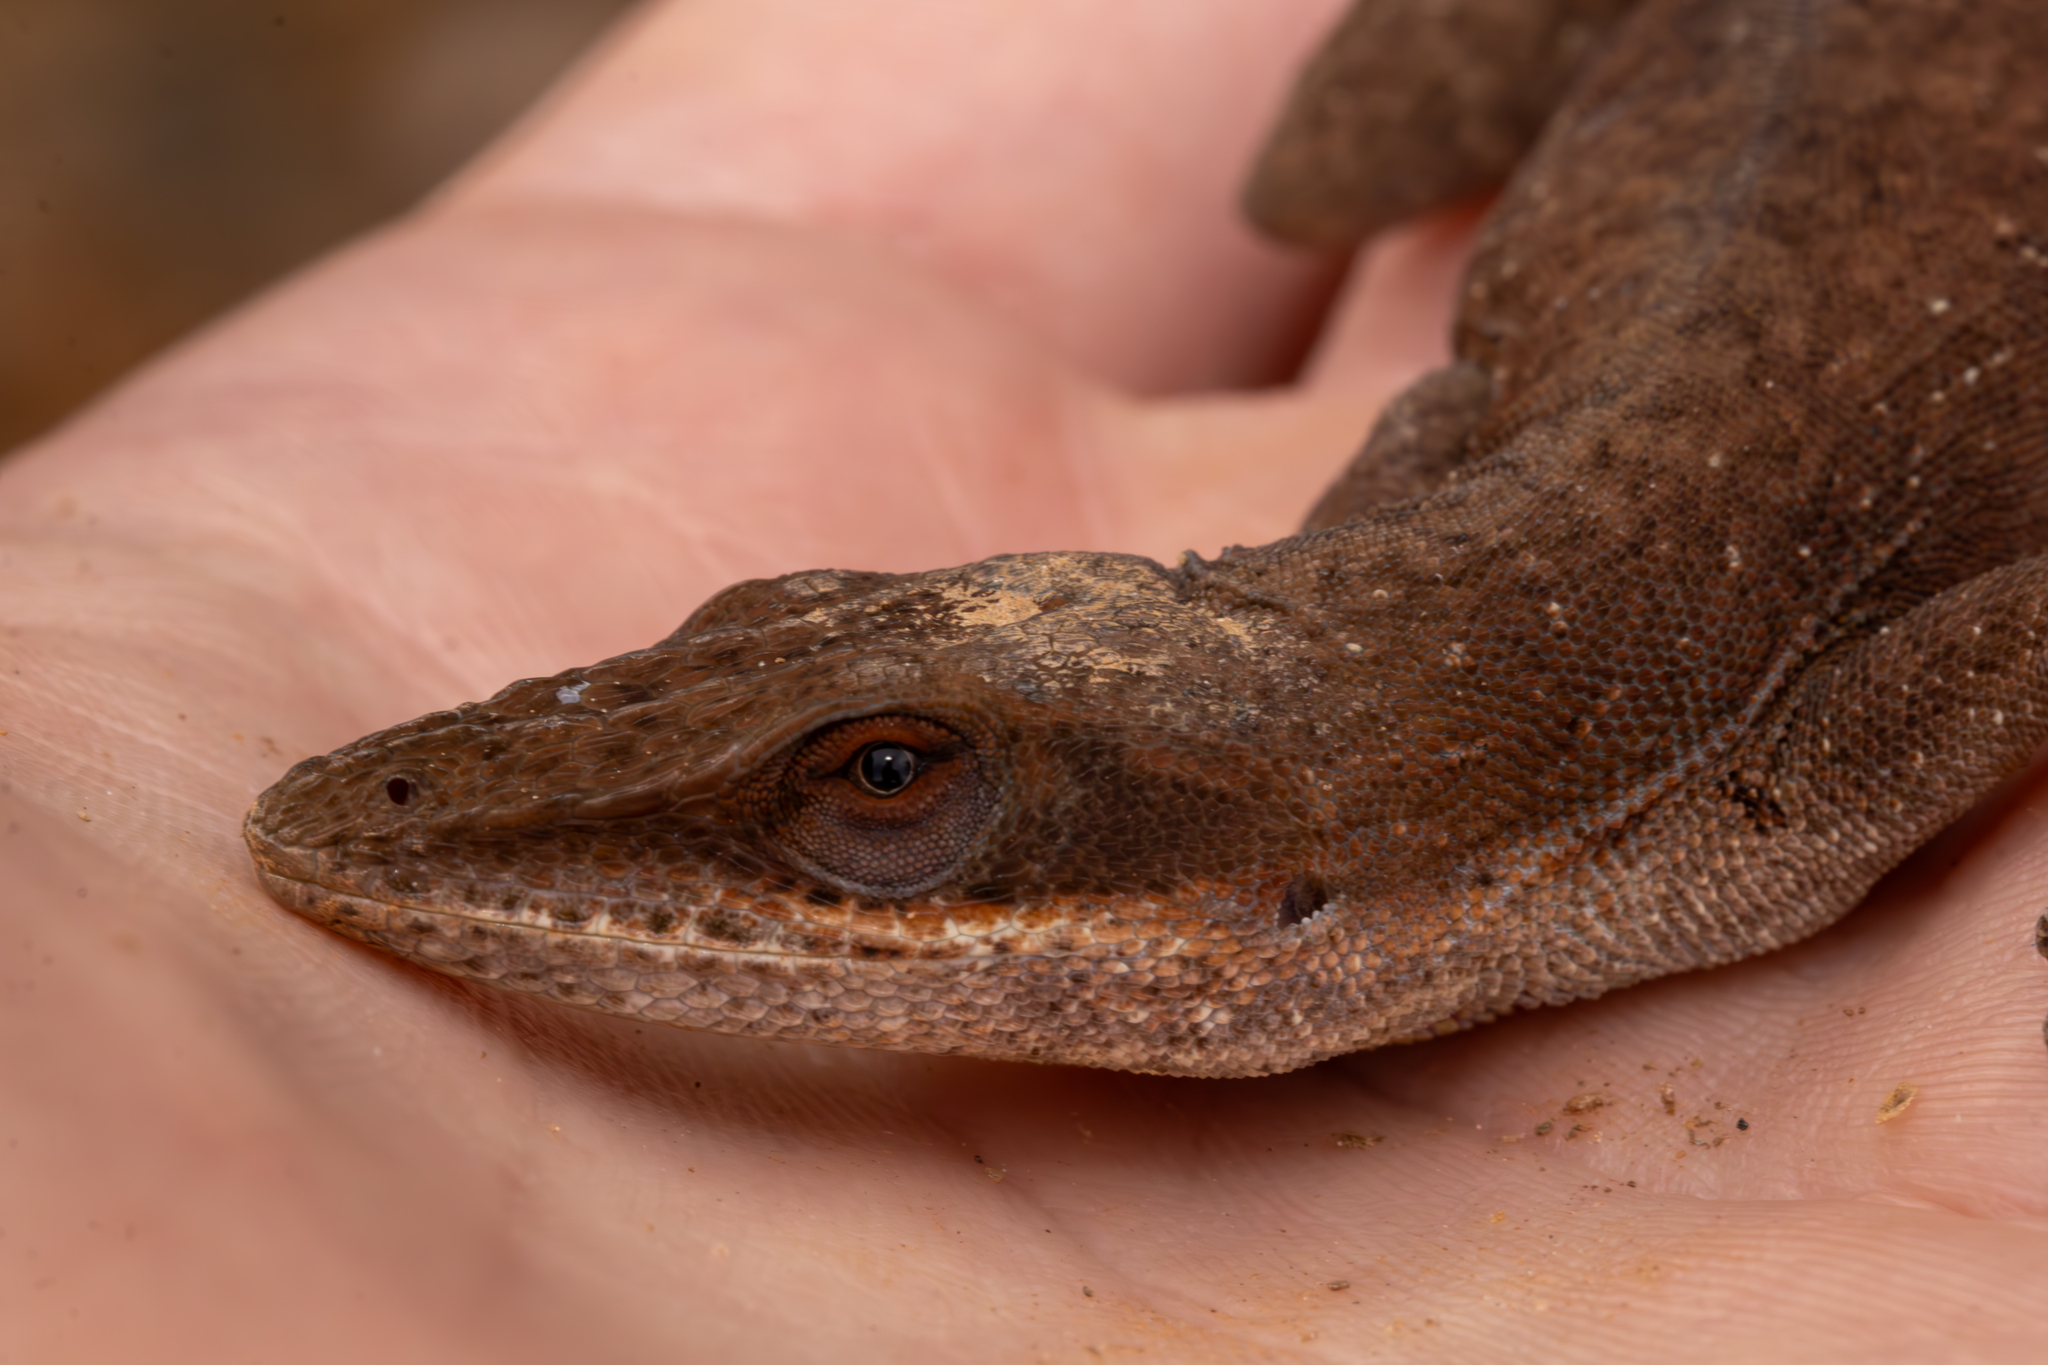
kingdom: Animalia
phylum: Chordata
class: Squamata
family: Dactyloidae
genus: Anolis
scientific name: Anolis carolinensis
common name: Green anole
